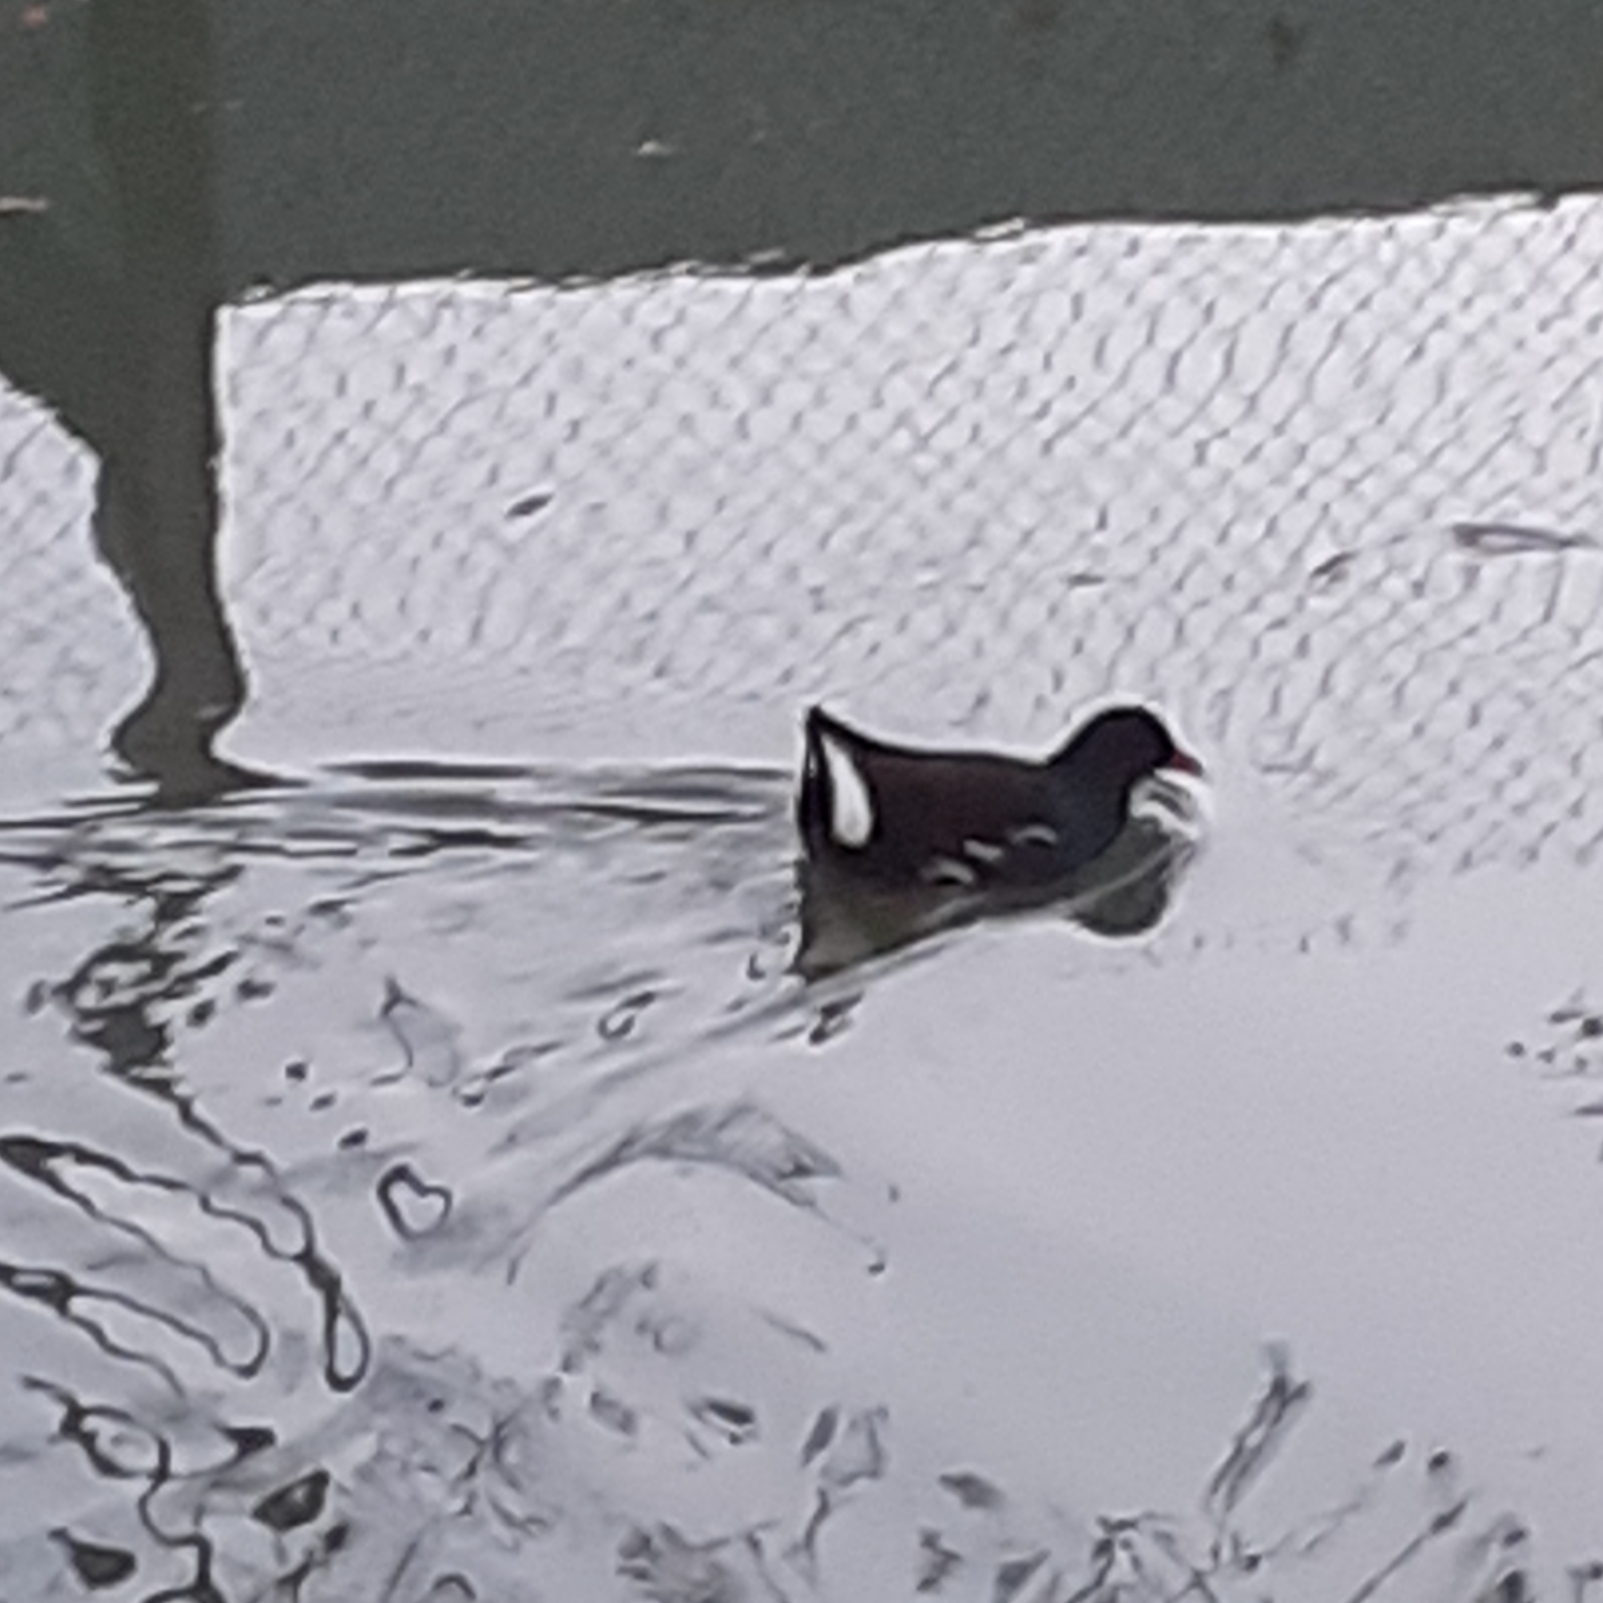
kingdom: Animalia
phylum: Chordata
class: Aves
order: Gruiformes
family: Rallidae
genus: Gallinula
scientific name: Gallinula chloropus
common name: Common moorhen
